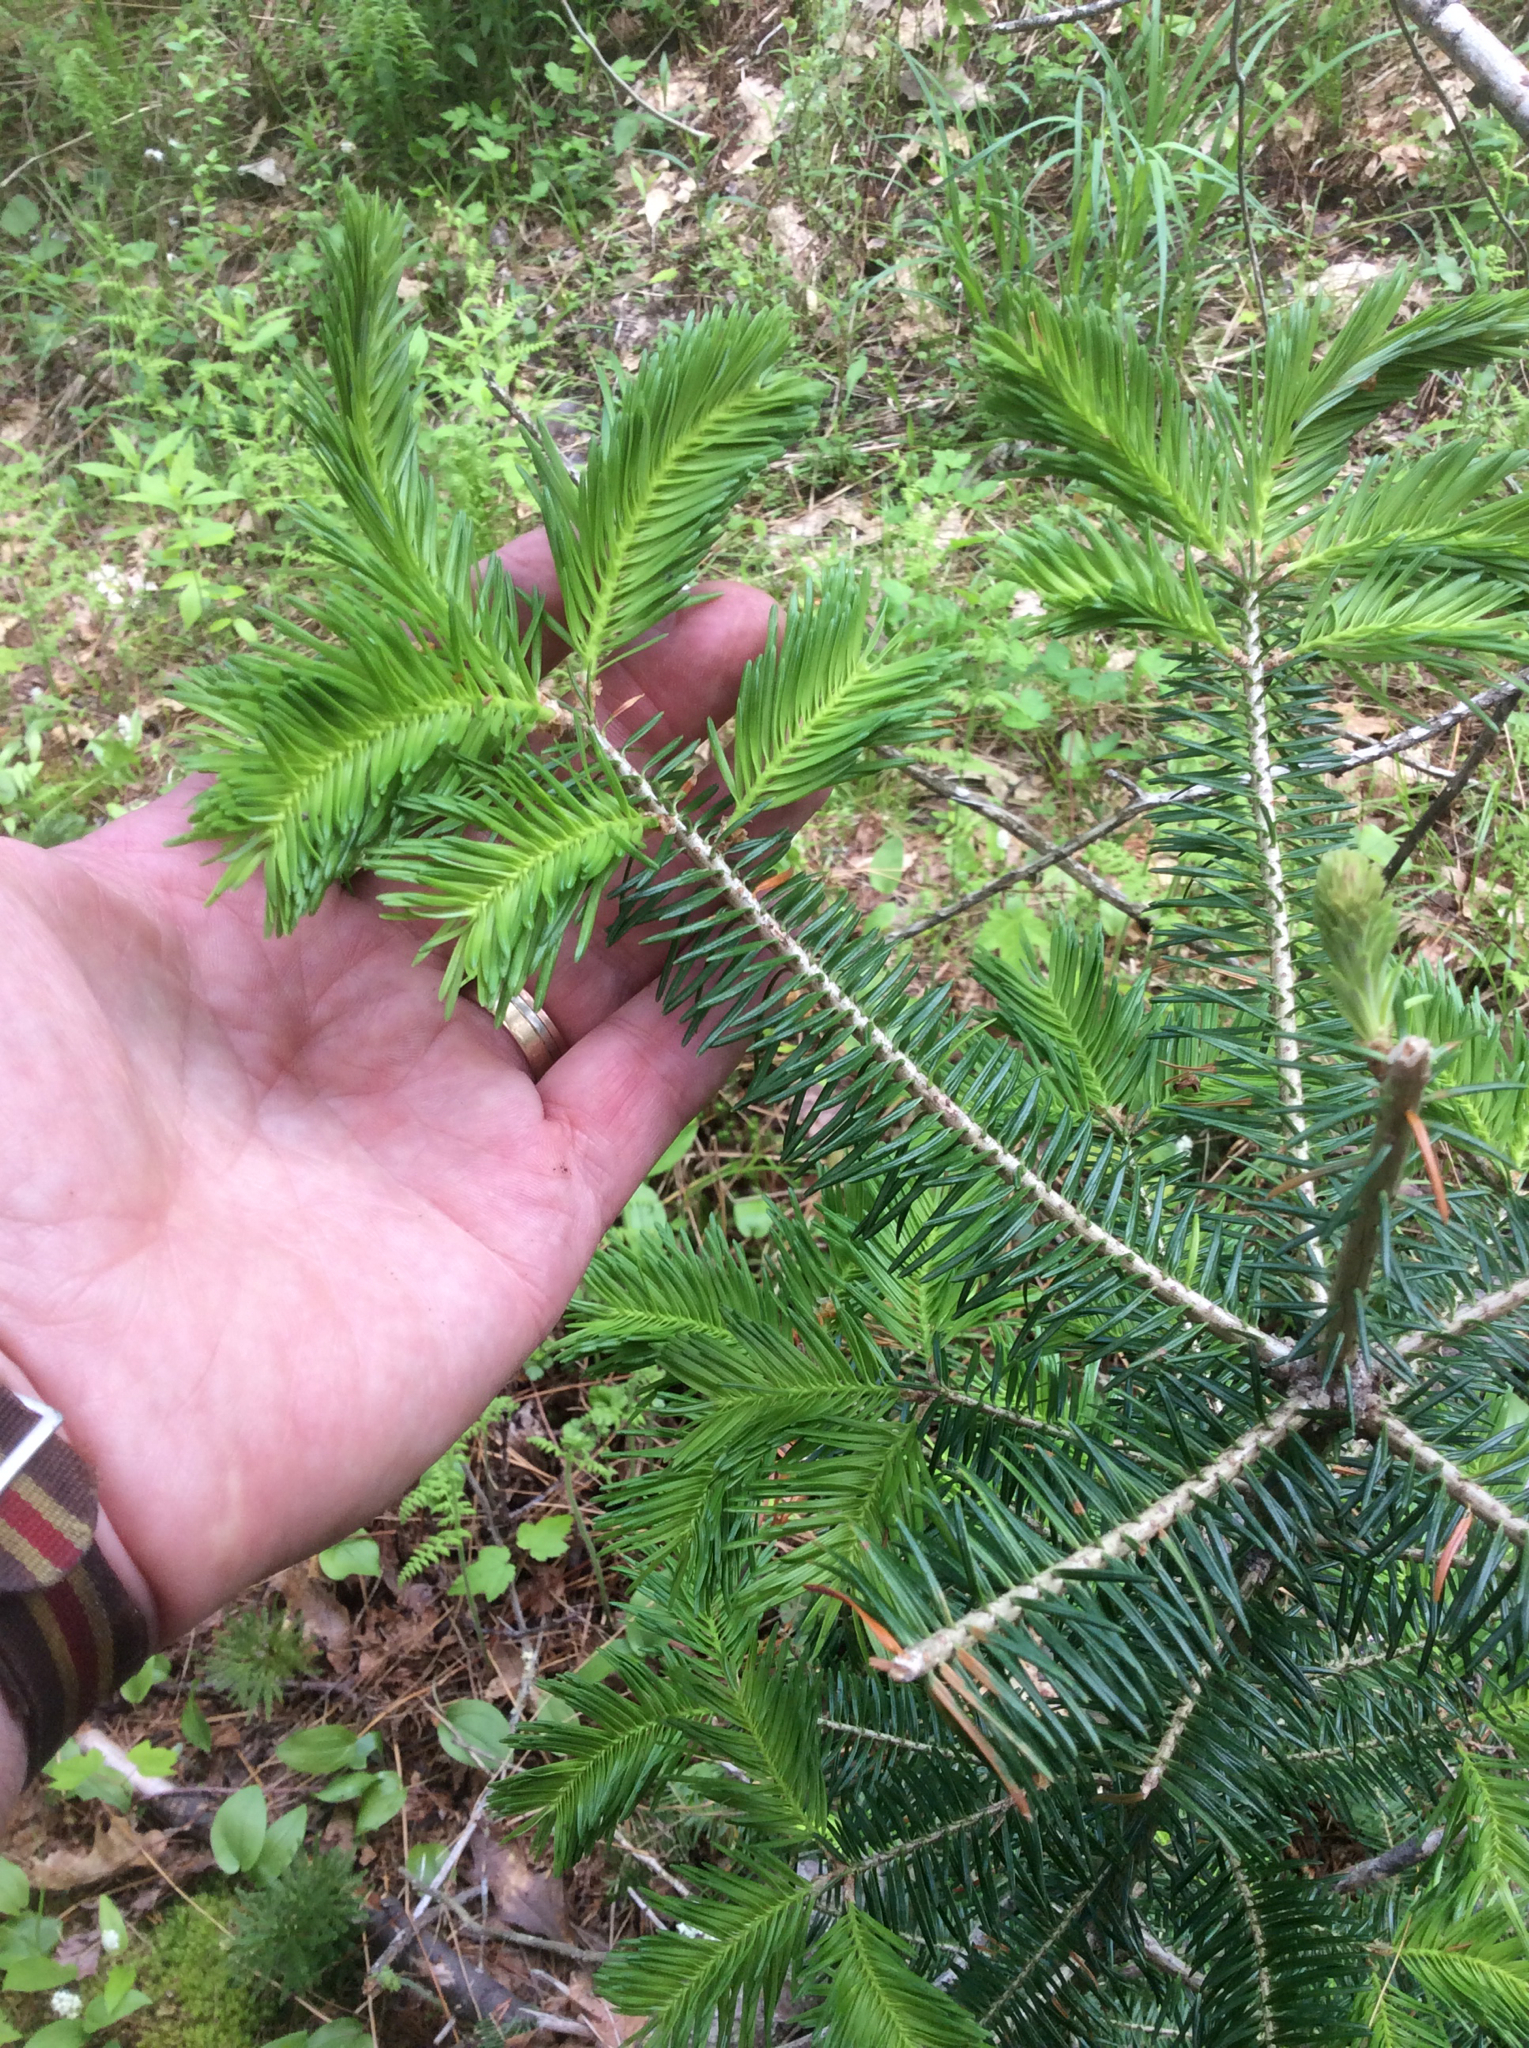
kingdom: Plantae
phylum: Tracheophyta
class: Pinopsida
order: Pinales
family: Pinaceae
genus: Abies
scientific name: Abies balsamea
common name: Balsam fir
